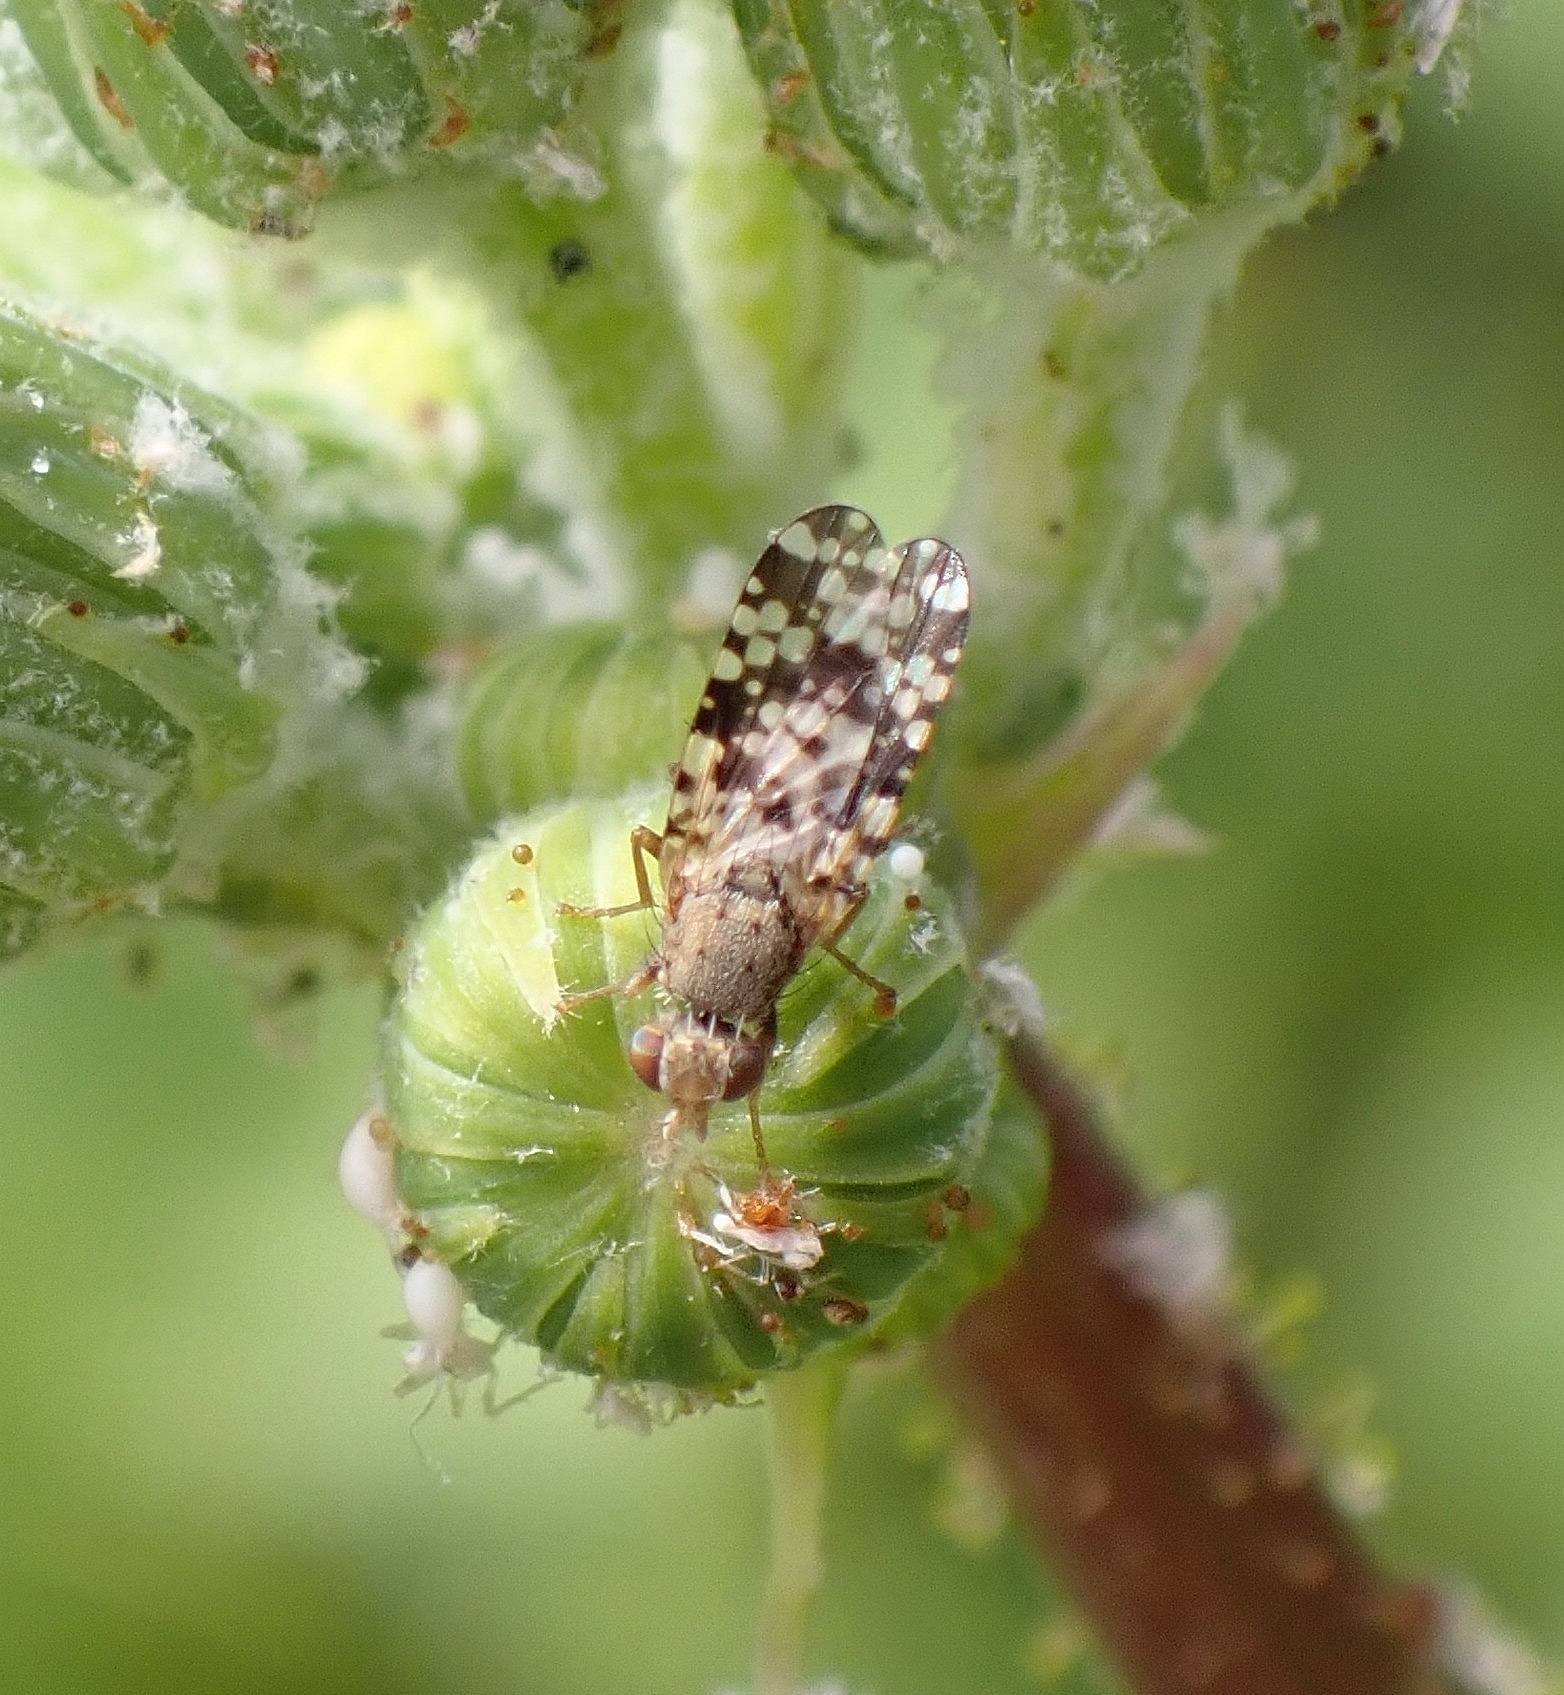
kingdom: Animalia
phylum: Arthropoda
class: Insecta
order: Diptera
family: Tephritidae
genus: Campiglossa
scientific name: Campiglossa producta
